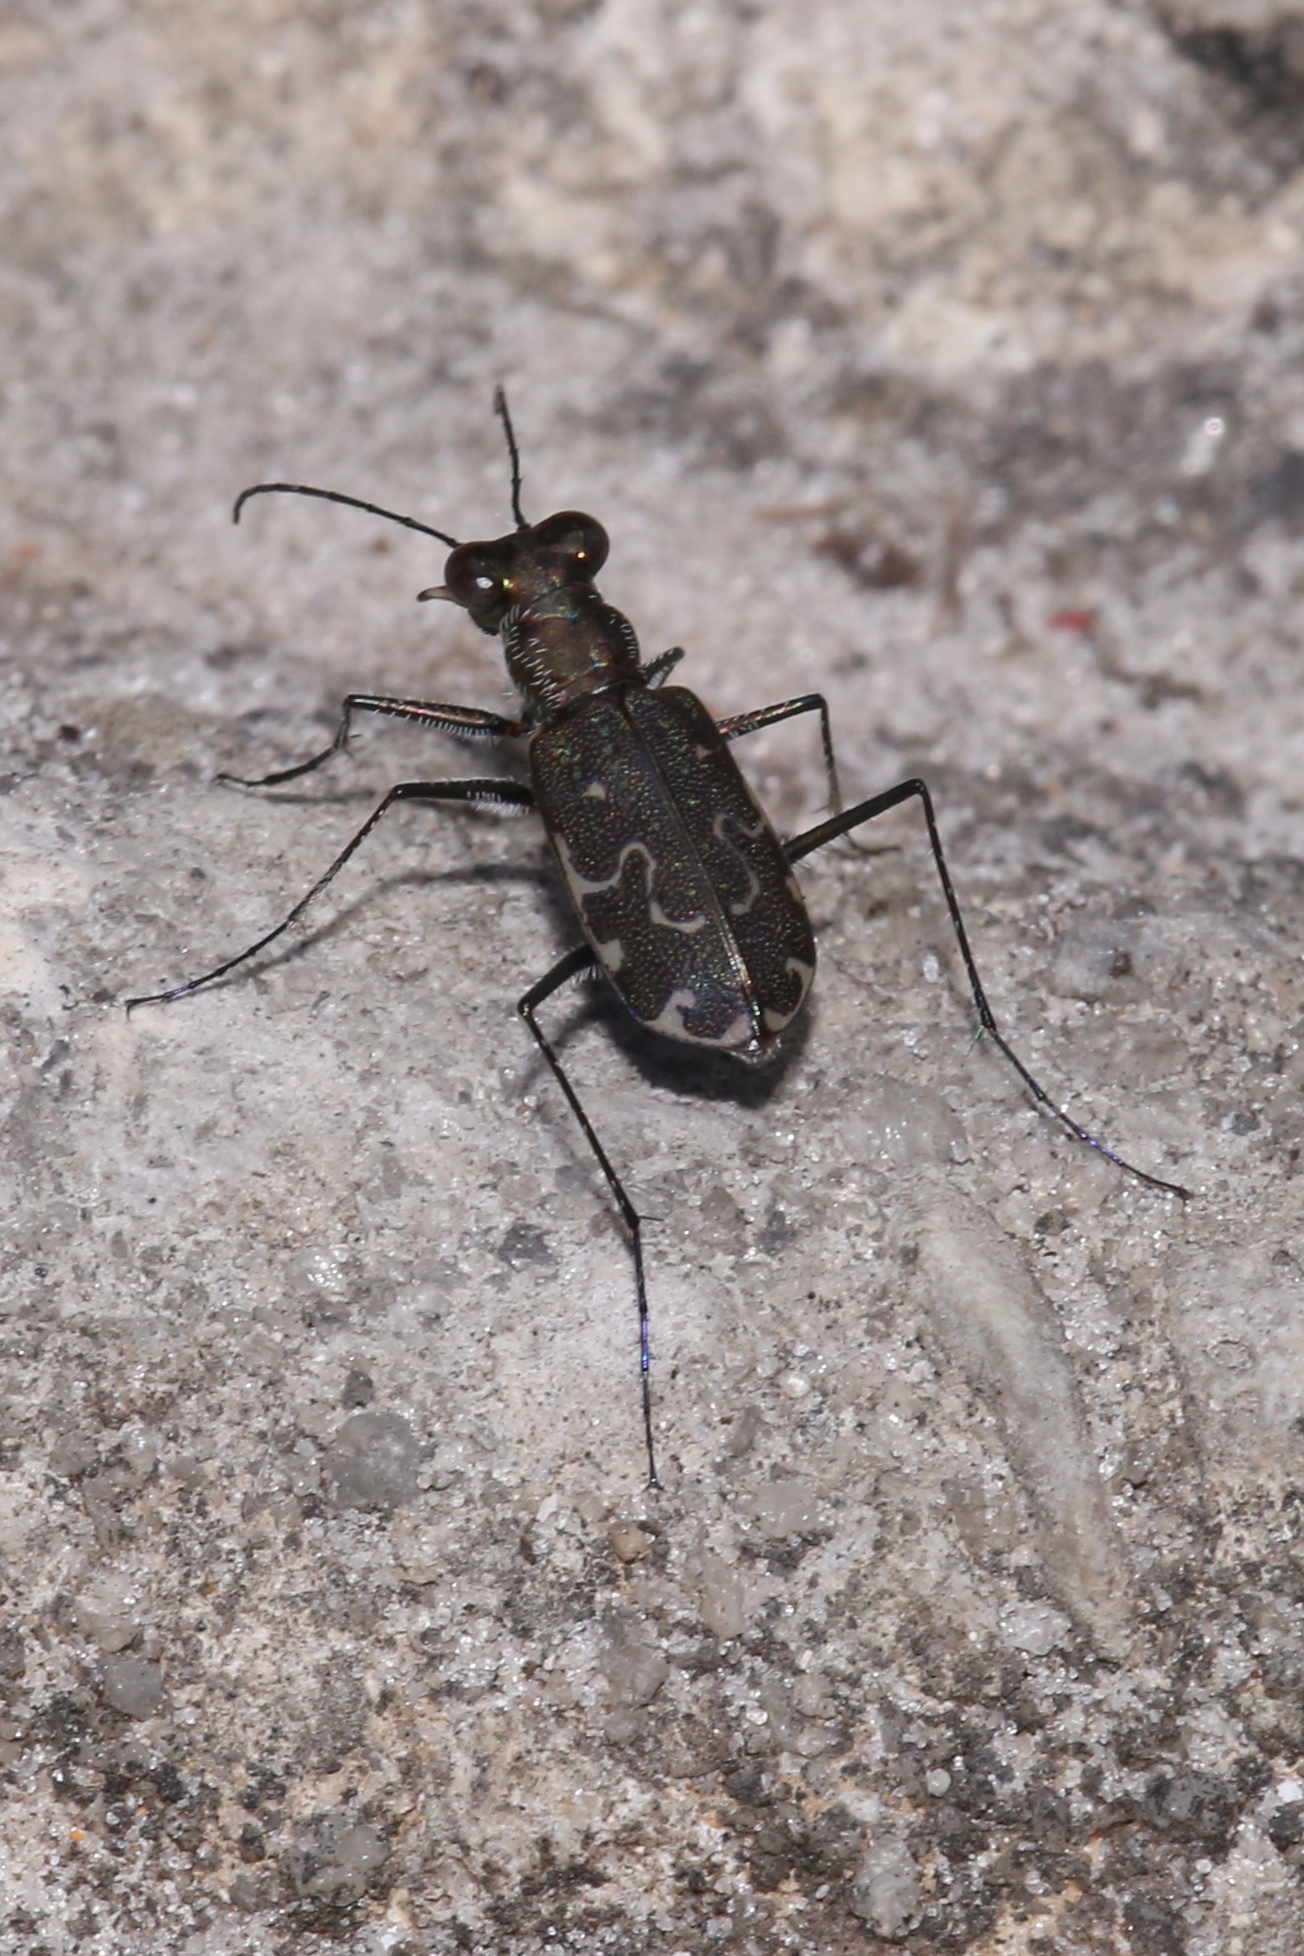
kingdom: Animalia
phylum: Arthropoda
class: Insecta
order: Coleoptera
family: Carabidae
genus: Cicindela
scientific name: Cicindela trifasciata
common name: Mudflat tiger beetle
